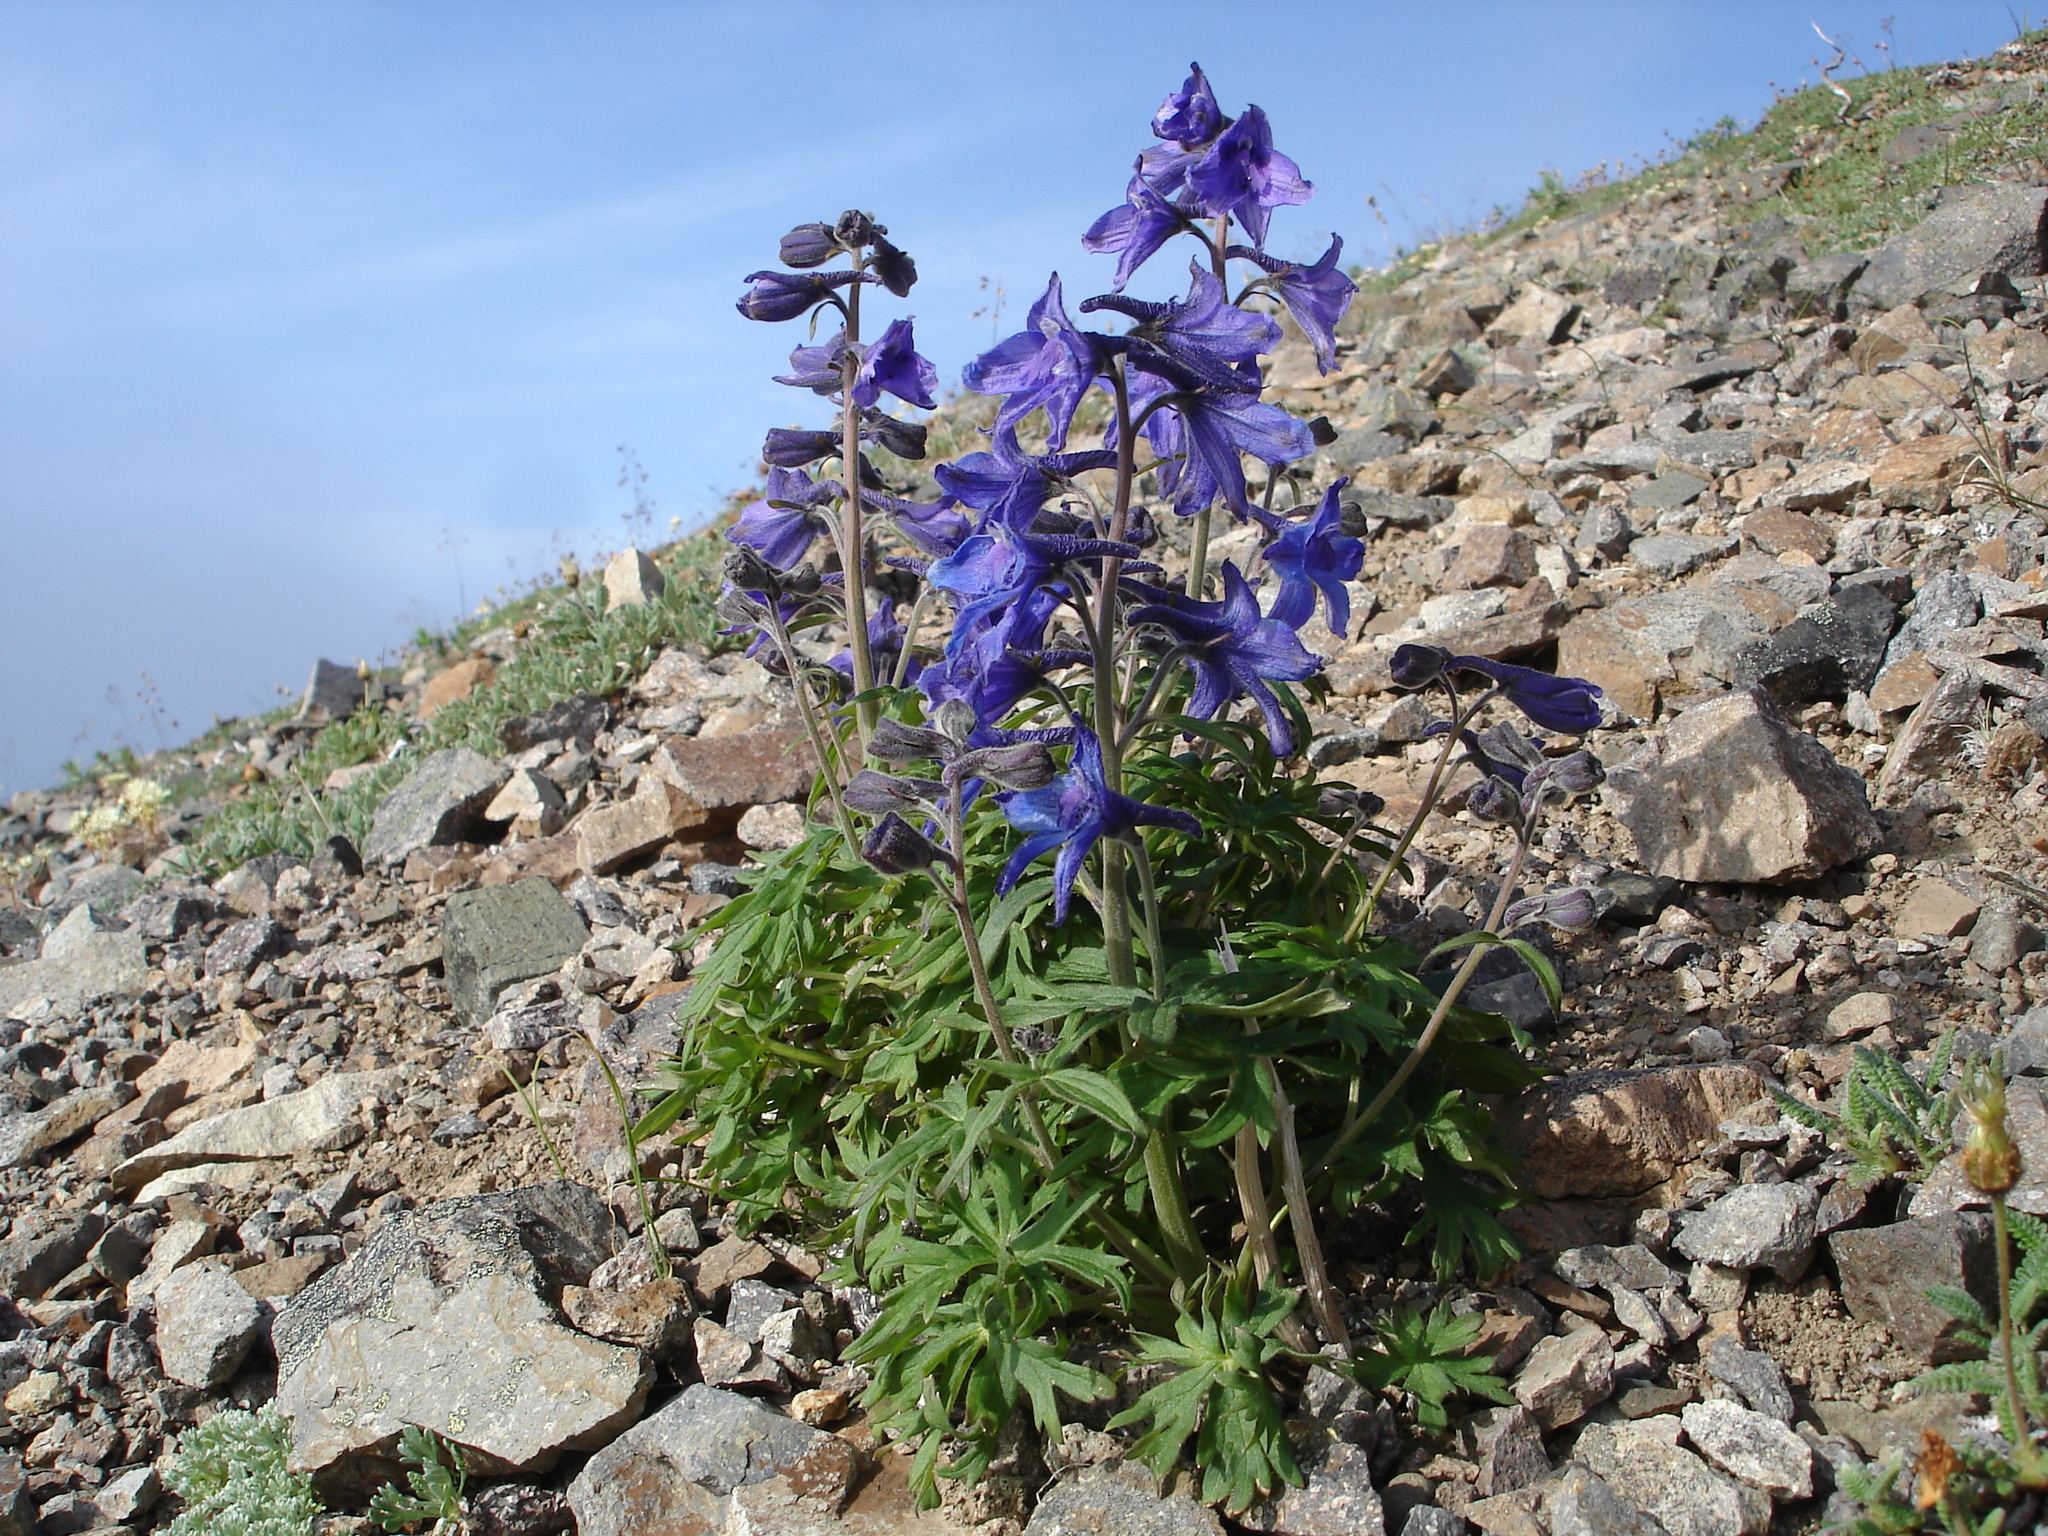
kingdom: Plantae
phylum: Tracheophyta
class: Magnoliopsida
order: Ranunculales
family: Ranunculaceae
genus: Delphinium
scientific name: Delphinium chamissonis
